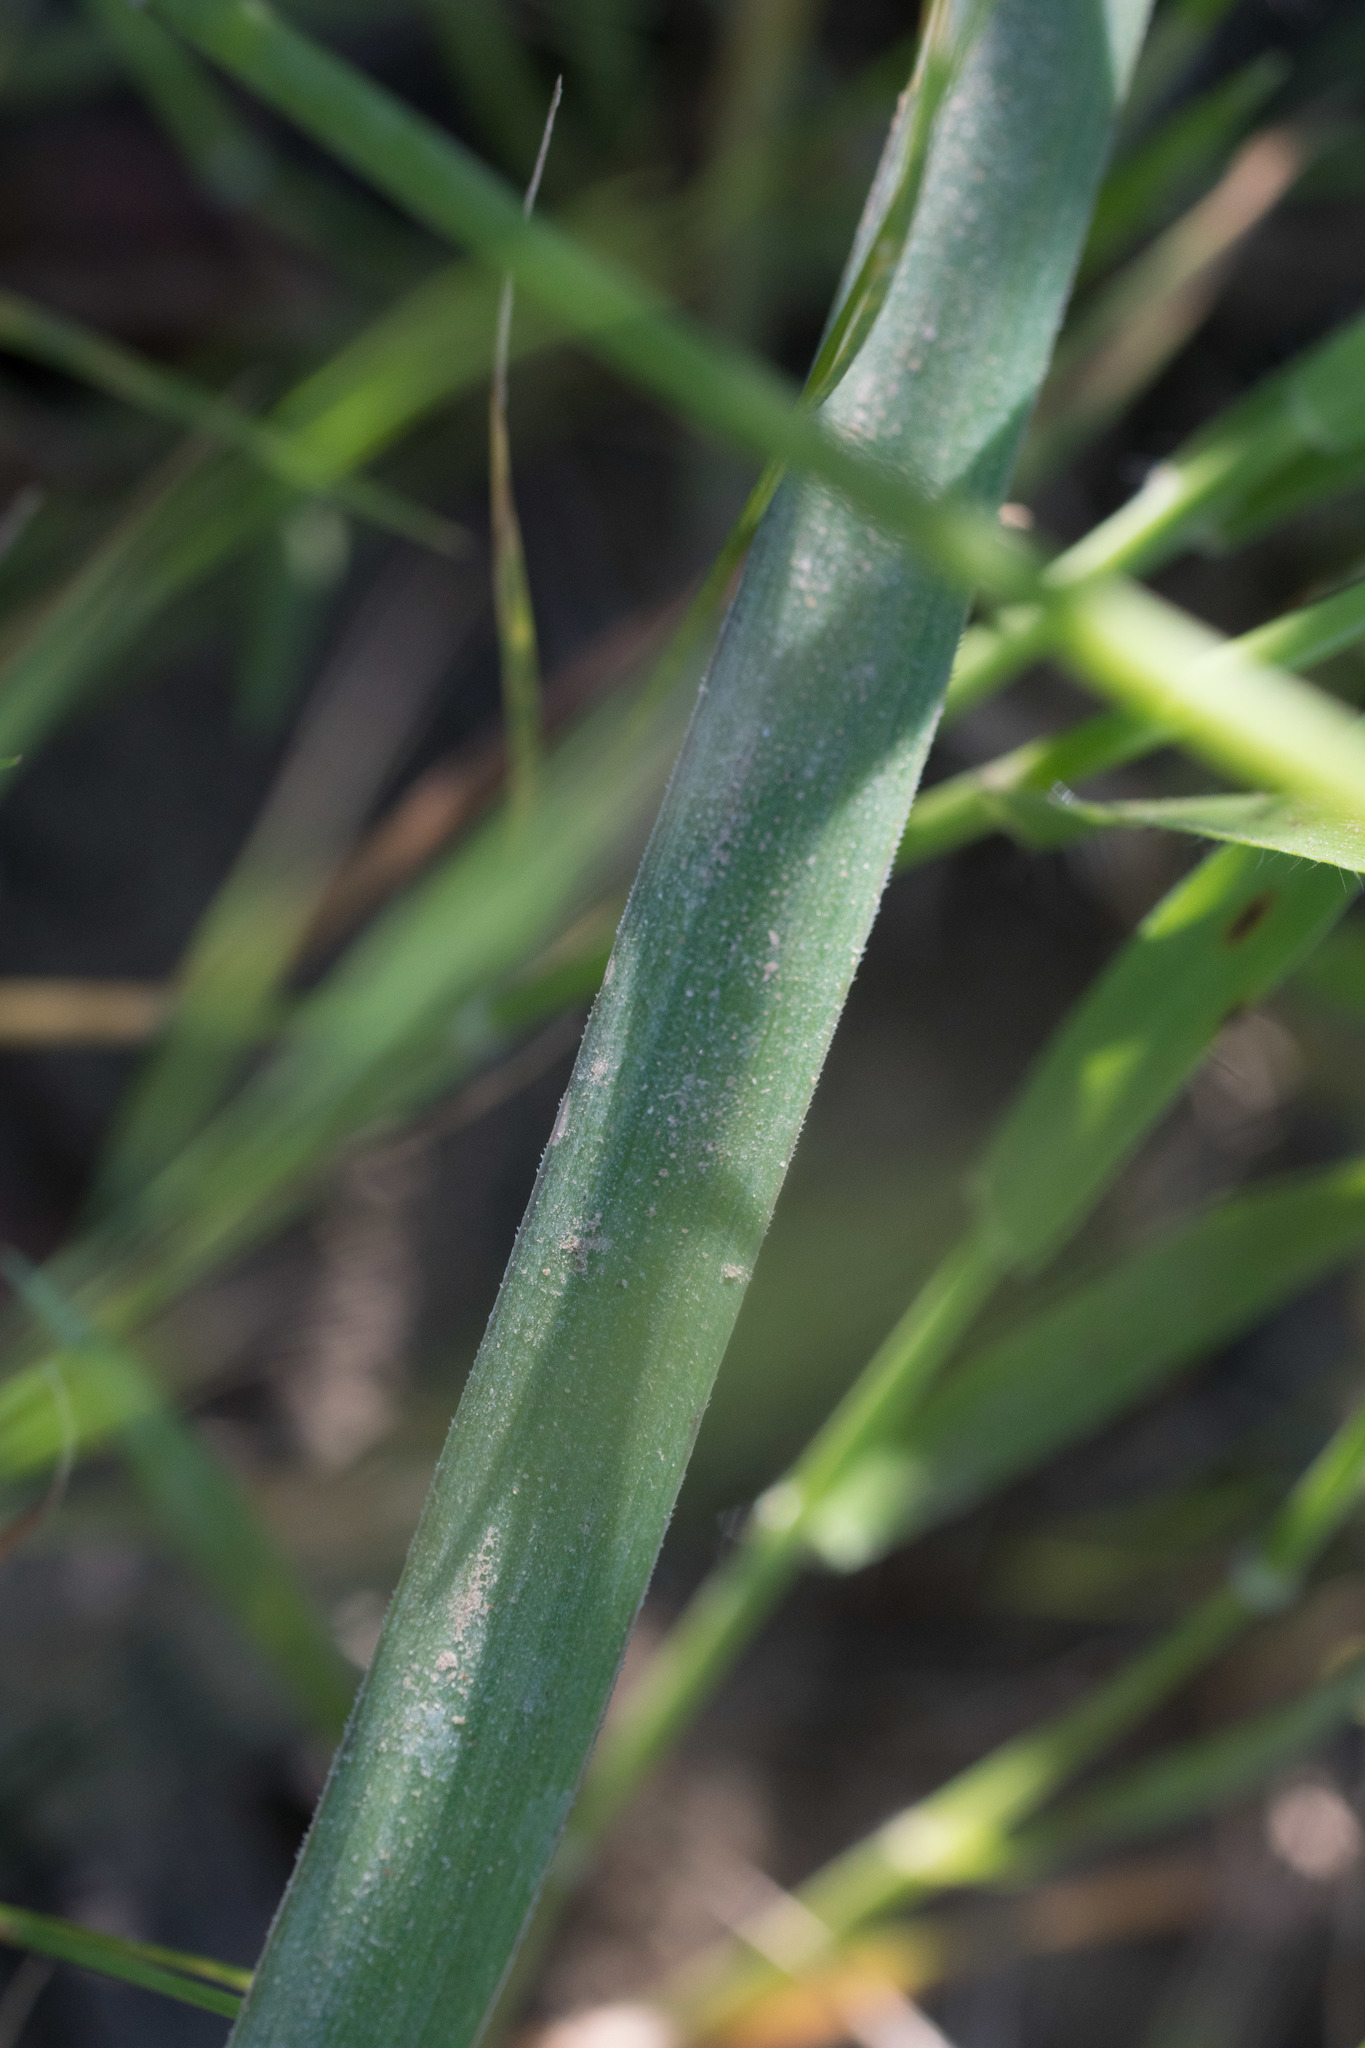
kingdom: Plantae
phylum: Tracheophyta
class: Liliopsida
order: Asparagales
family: Asparagaceae
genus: Dipterostemon
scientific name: Dipterostemon capitatus
